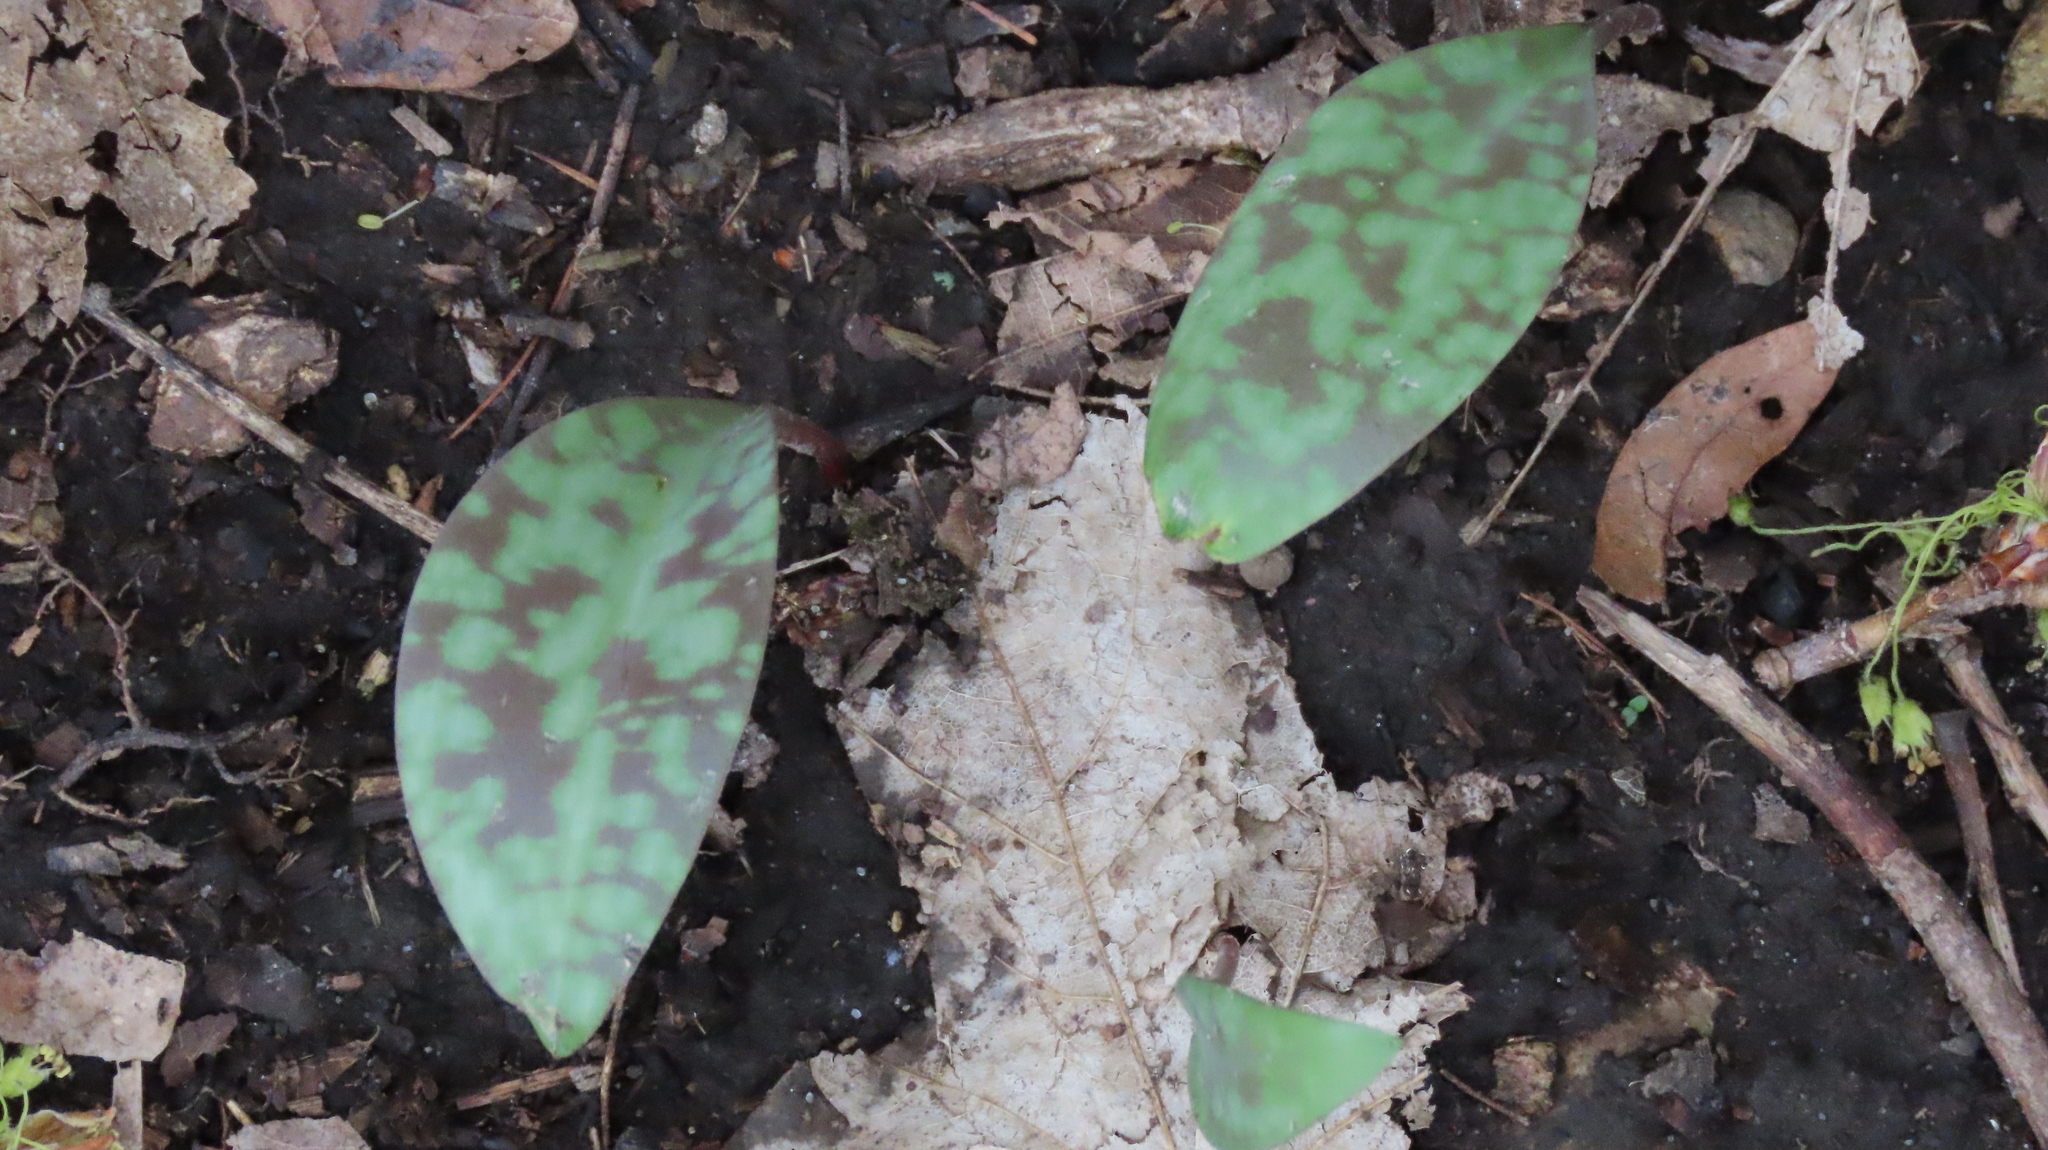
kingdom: Plantae
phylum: Tracheophyta
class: Liliopsida
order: Liliales
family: Liliaceae
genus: Erythronium
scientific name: Erythronium
